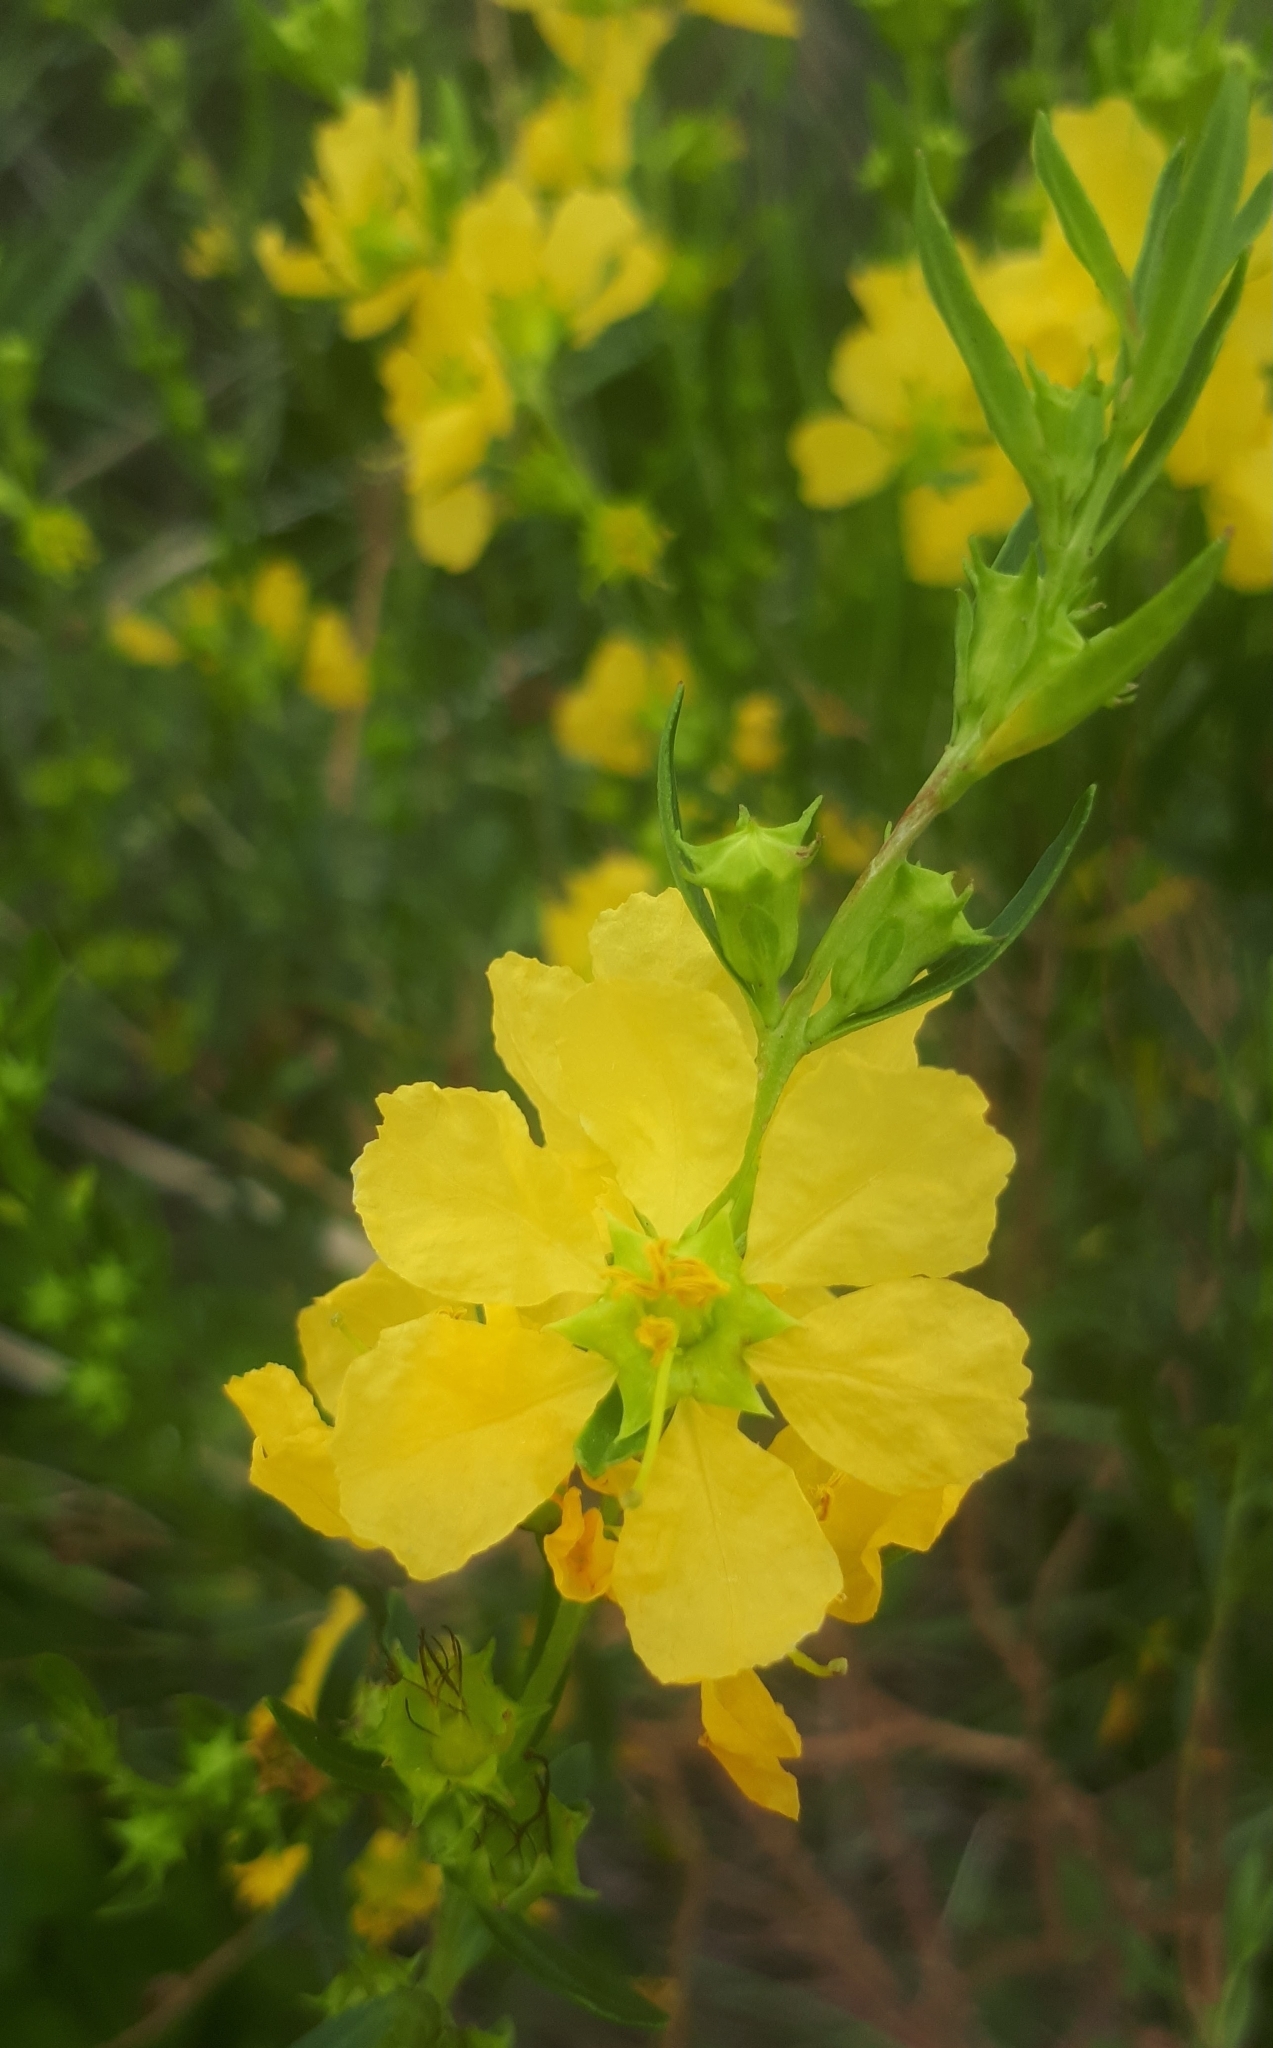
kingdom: Plantae
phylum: Tracheophyta
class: Magnoliopsida
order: Myrtales
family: Lythraceae
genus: Heimia
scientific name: Heimia salicifolia
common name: Willow-leaf heimia
